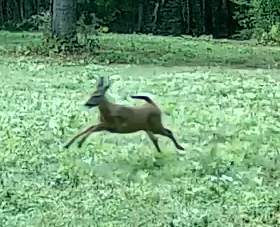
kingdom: Animalia
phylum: Chordata
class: Mammalia
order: Artiodactyla
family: Cervidae
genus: Odocoileus
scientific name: Odocoileus virginianus
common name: White-tailed deer
